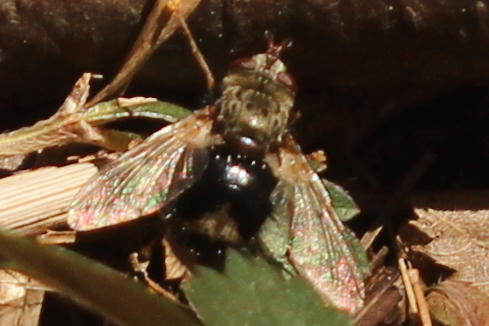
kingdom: Animalia
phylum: Arthropoda
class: Insecta
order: Diptera
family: Tachinidae
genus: Epalpus
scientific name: Epalpus signifer
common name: Early tachinid fly
